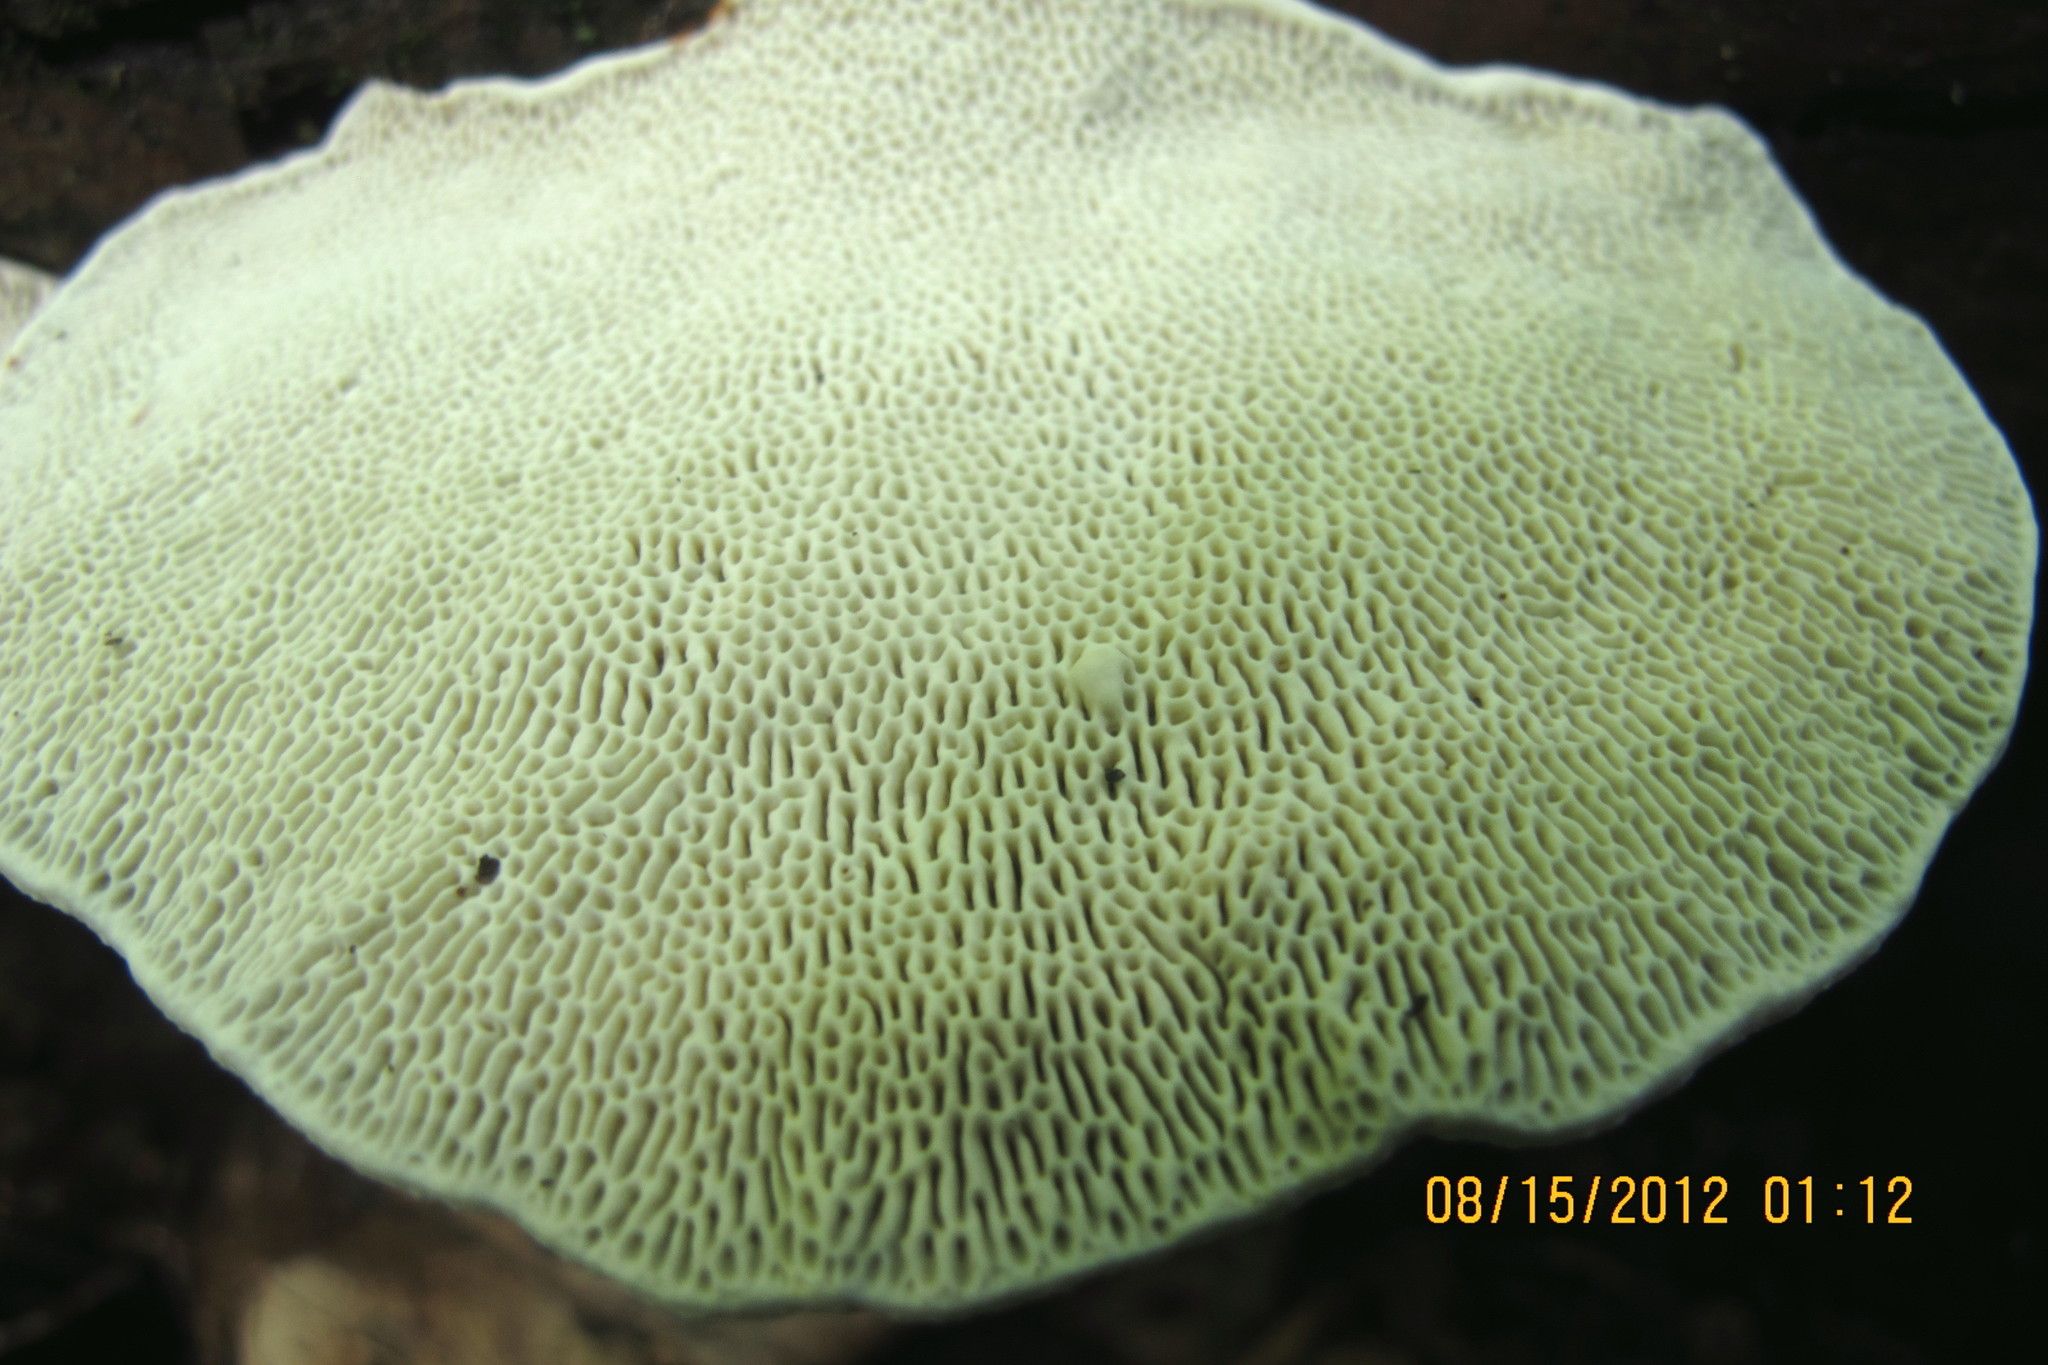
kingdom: Fungi
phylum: Basidiomycota
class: Agaricomycetes
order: Polyporales
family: Polyporaceae
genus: Daedaleopsis
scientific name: Daedaleopsis confragosa
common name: Blushing bracket
